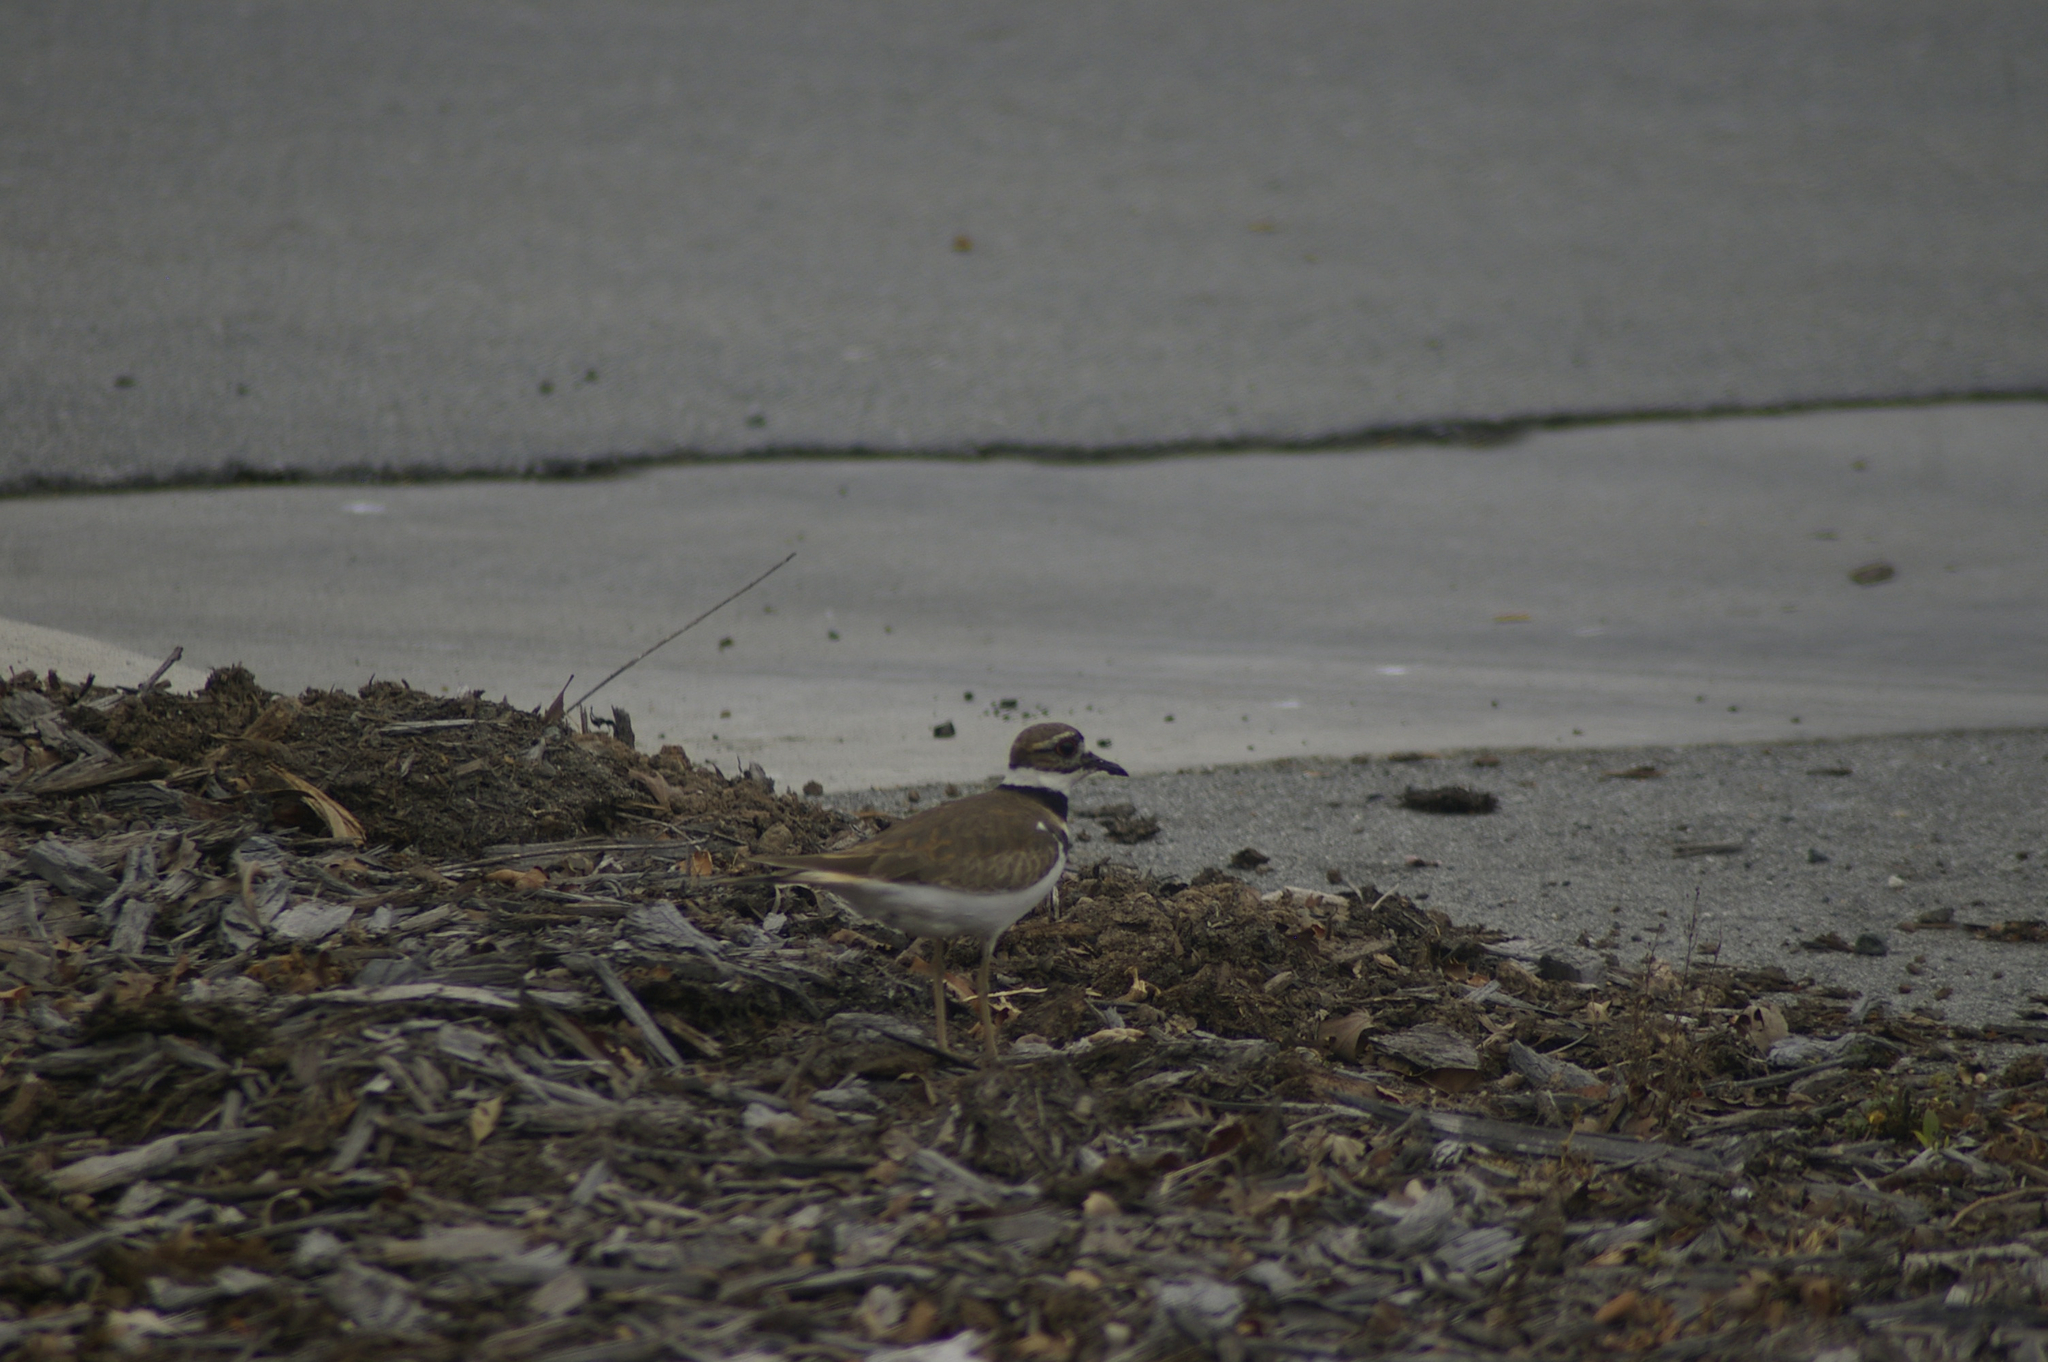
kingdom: Animalia
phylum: Chordata
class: Aves
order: Charadriiformes
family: Charadriidae
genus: Charadrius
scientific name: Charadrius vociferus
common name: Killdeer
